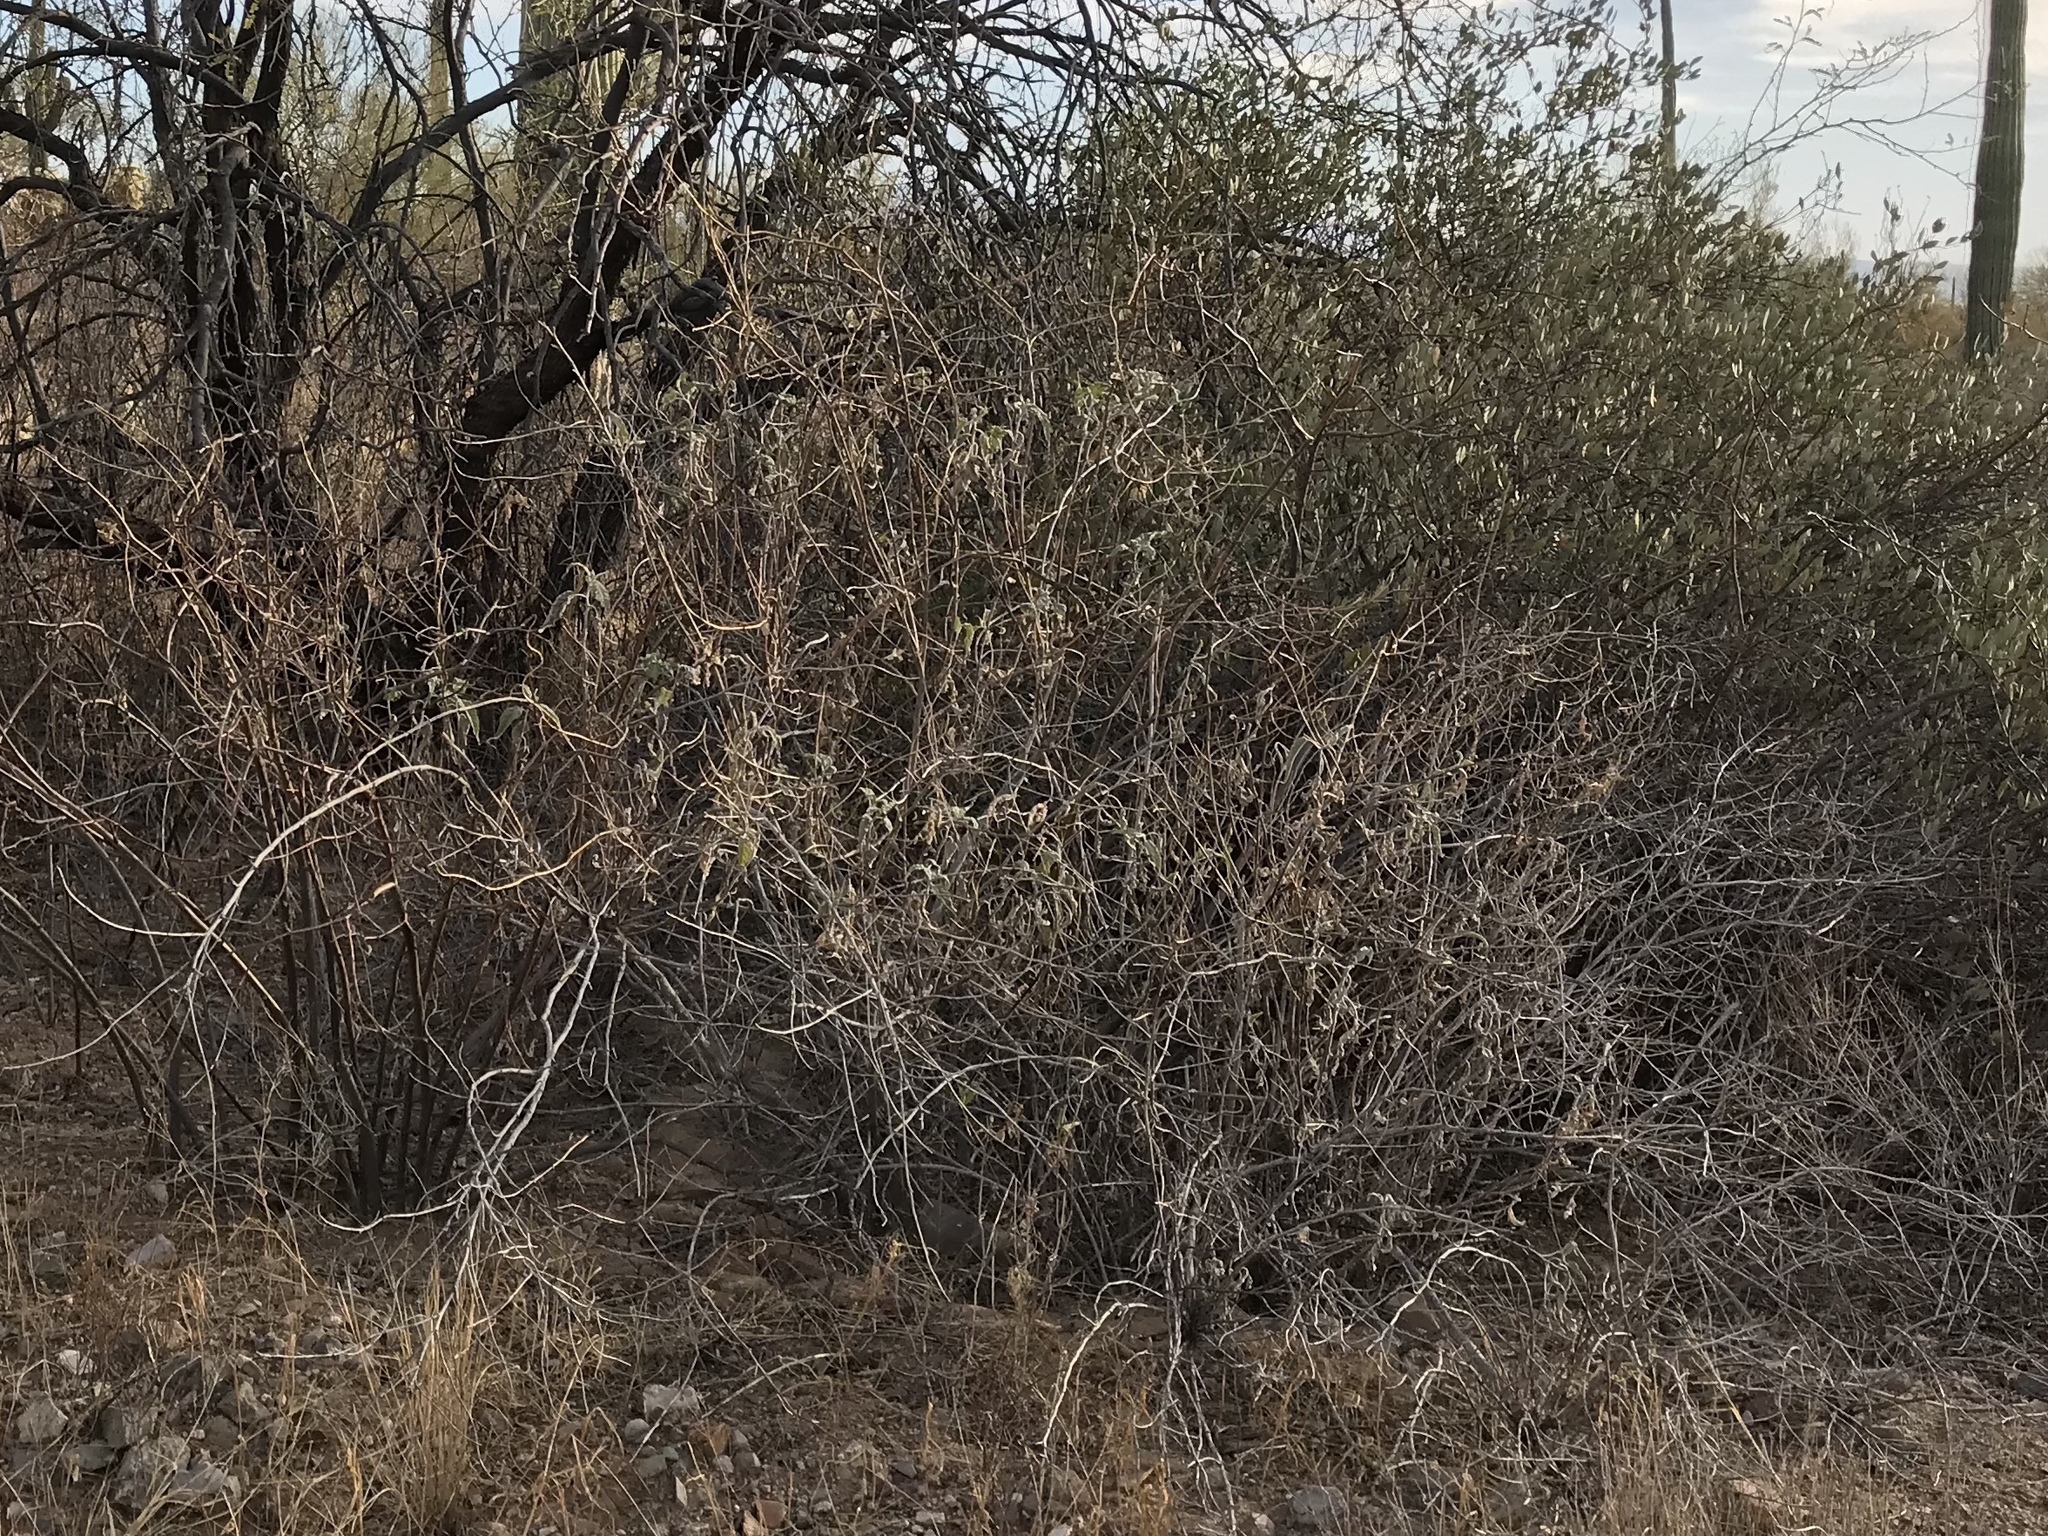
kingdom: Plantae
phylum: Tracheophyta
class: Magnoliopsida
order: Asterales
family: Asteraceae
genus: Ambrosia
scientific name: Ambrosia ambrosioides
